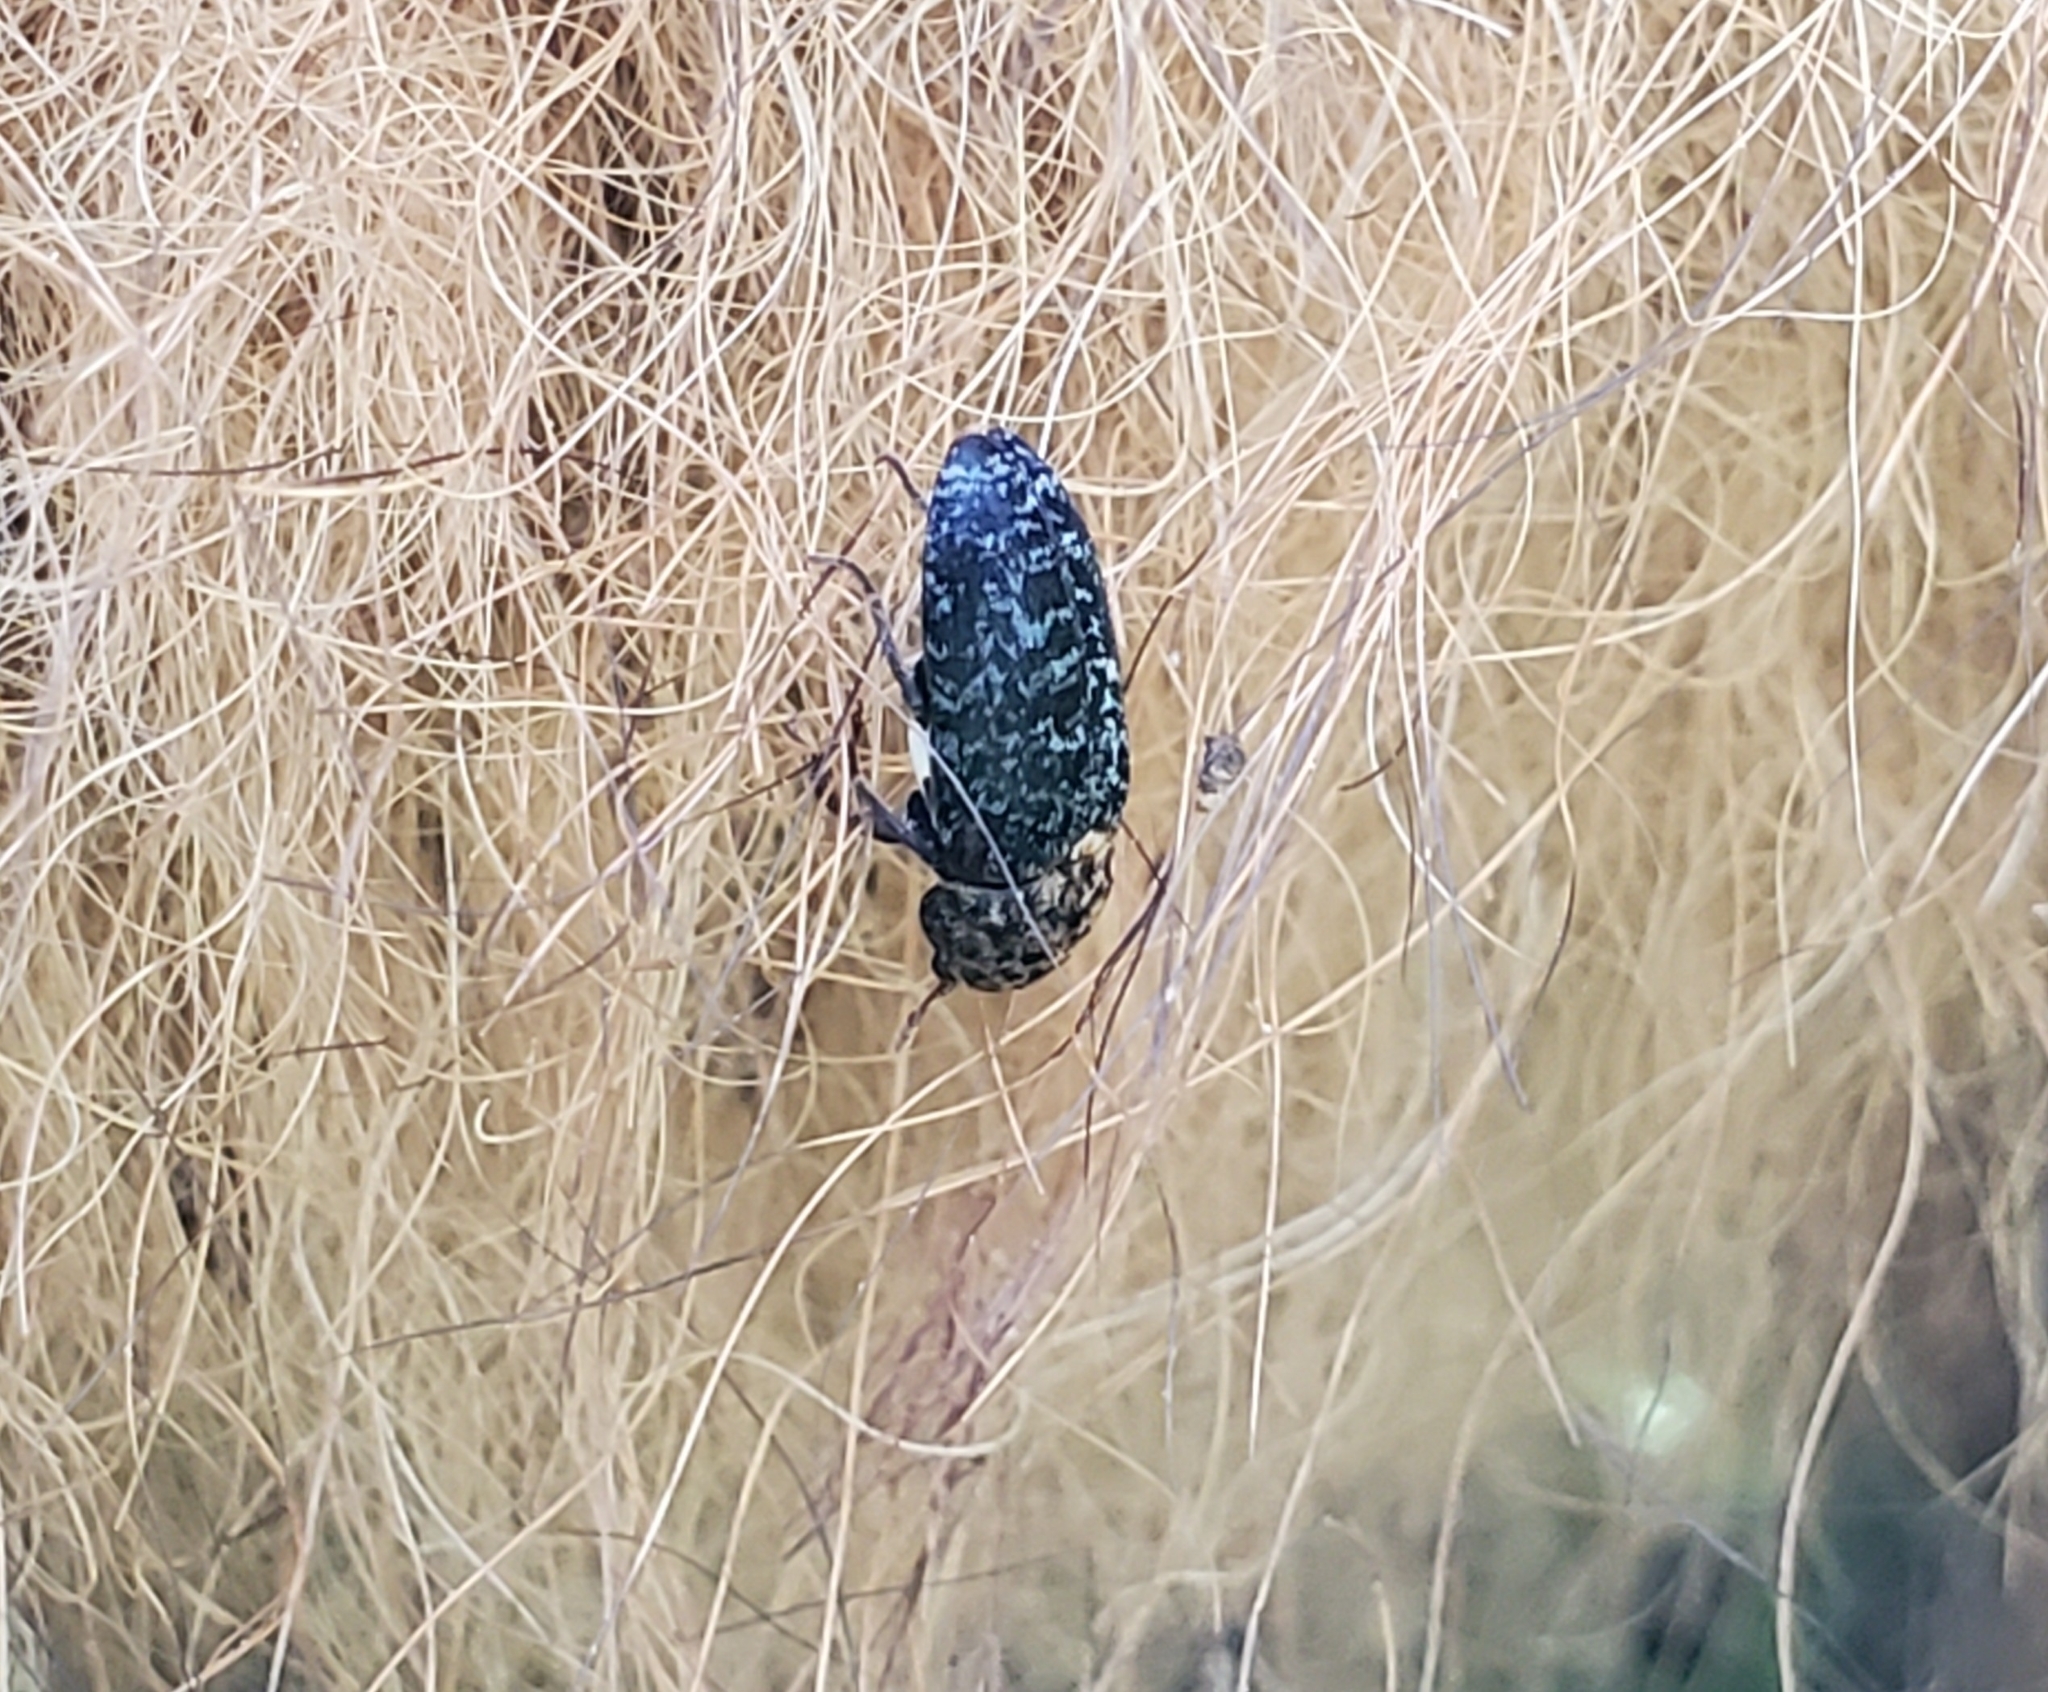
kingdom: Animalia
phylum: Arthropoda
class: Insecta
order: Coleoptera
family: Dermestidae
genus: Dermestes
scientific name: Dermestes undulatus
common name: Wavy carpet beetle
